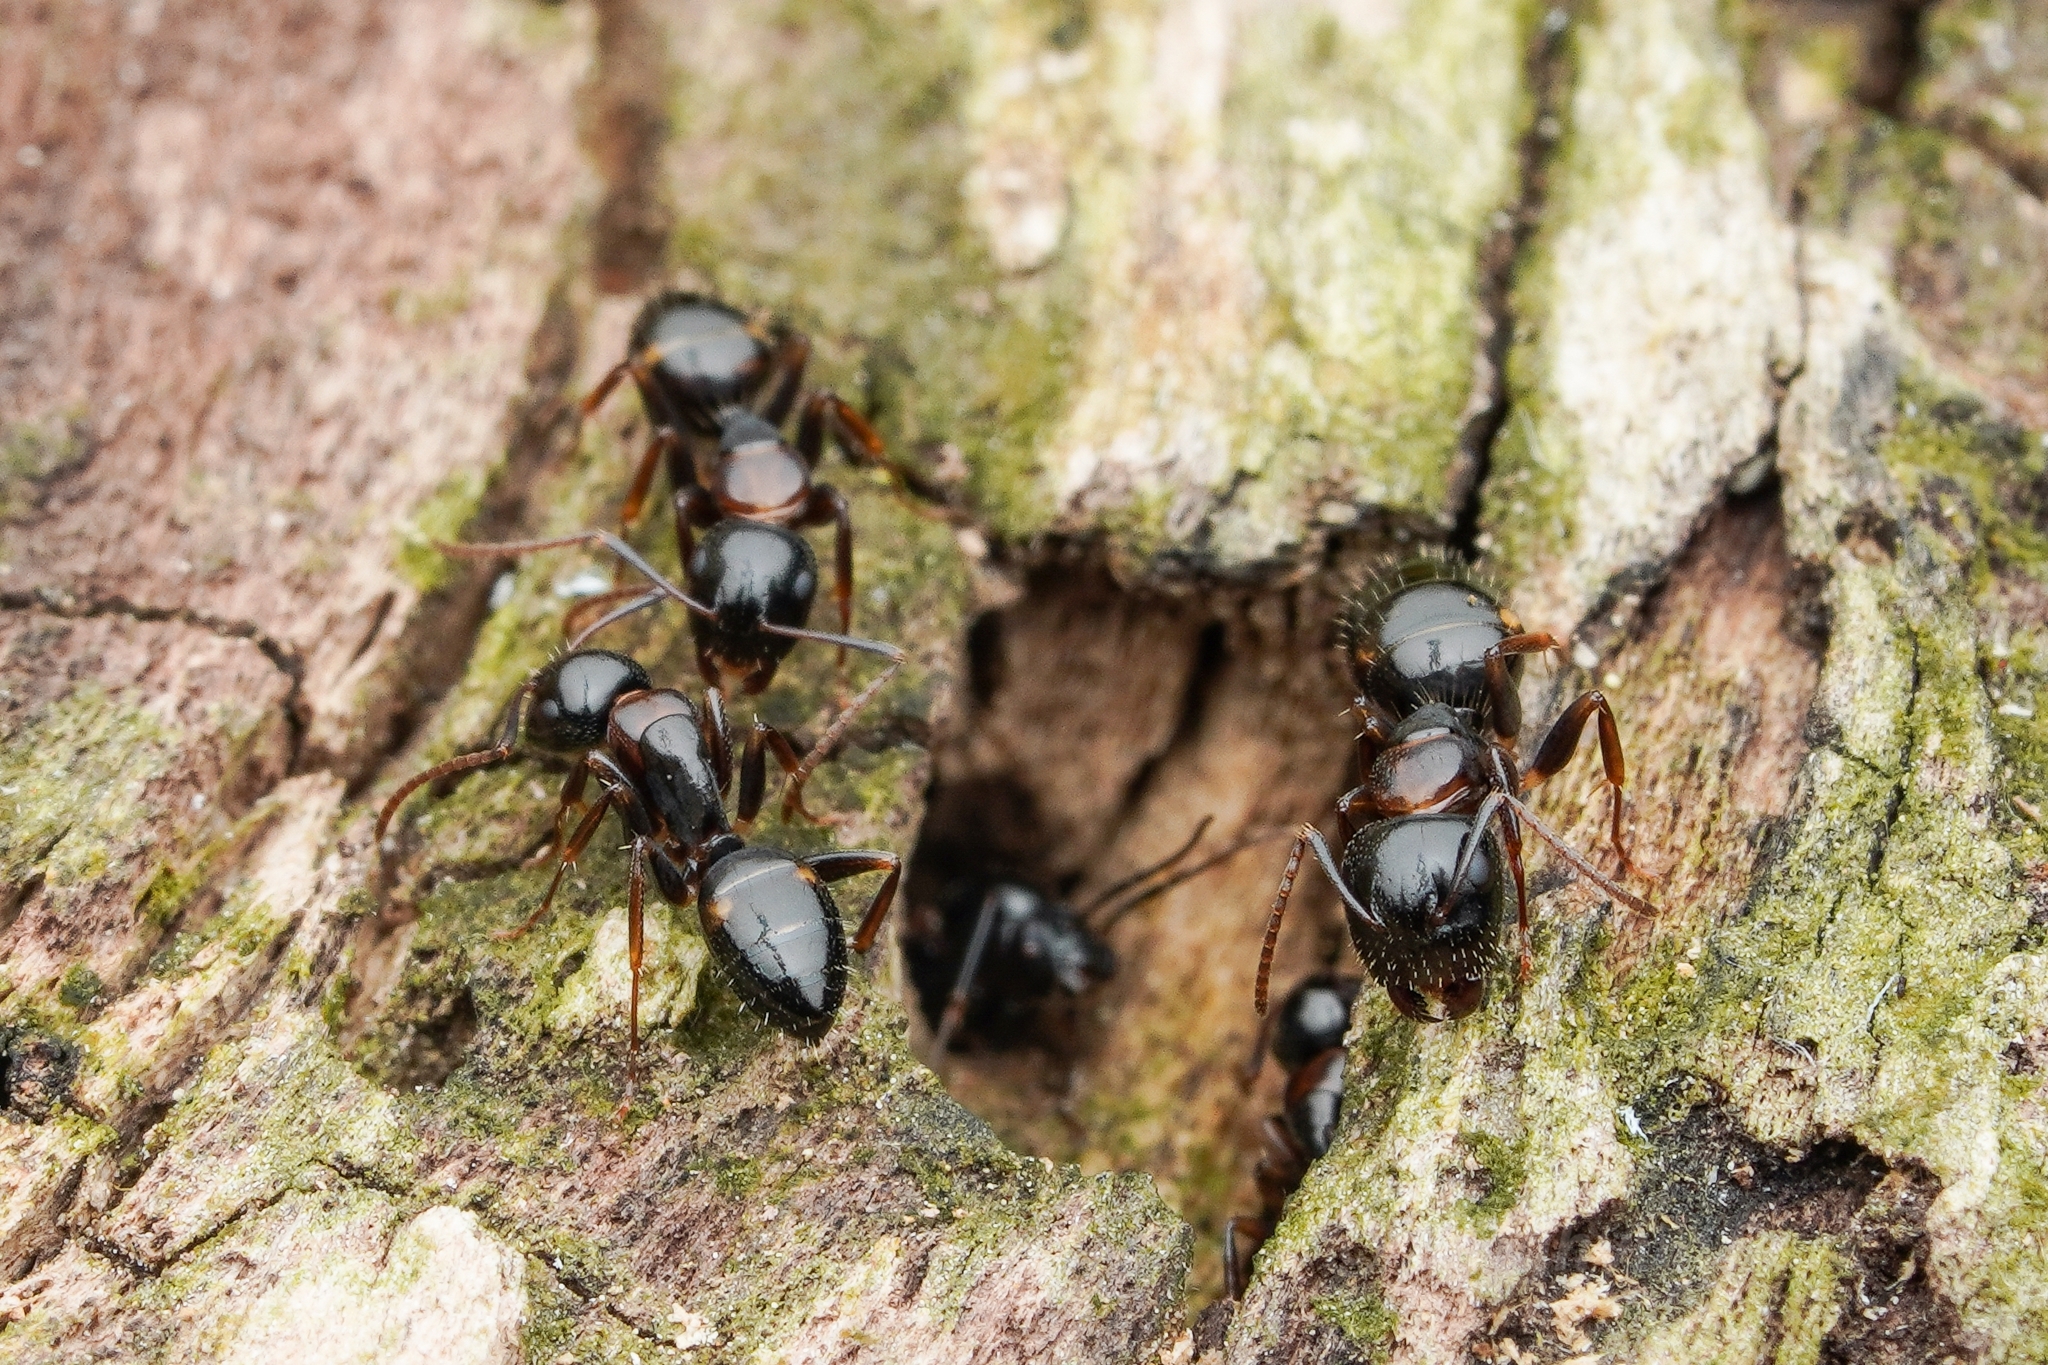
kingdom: Animalia
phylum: Arthropoda
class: Insecta
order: Hymenoptera
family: Formicidae
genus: Camponotus
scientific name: Camponotus nawai
